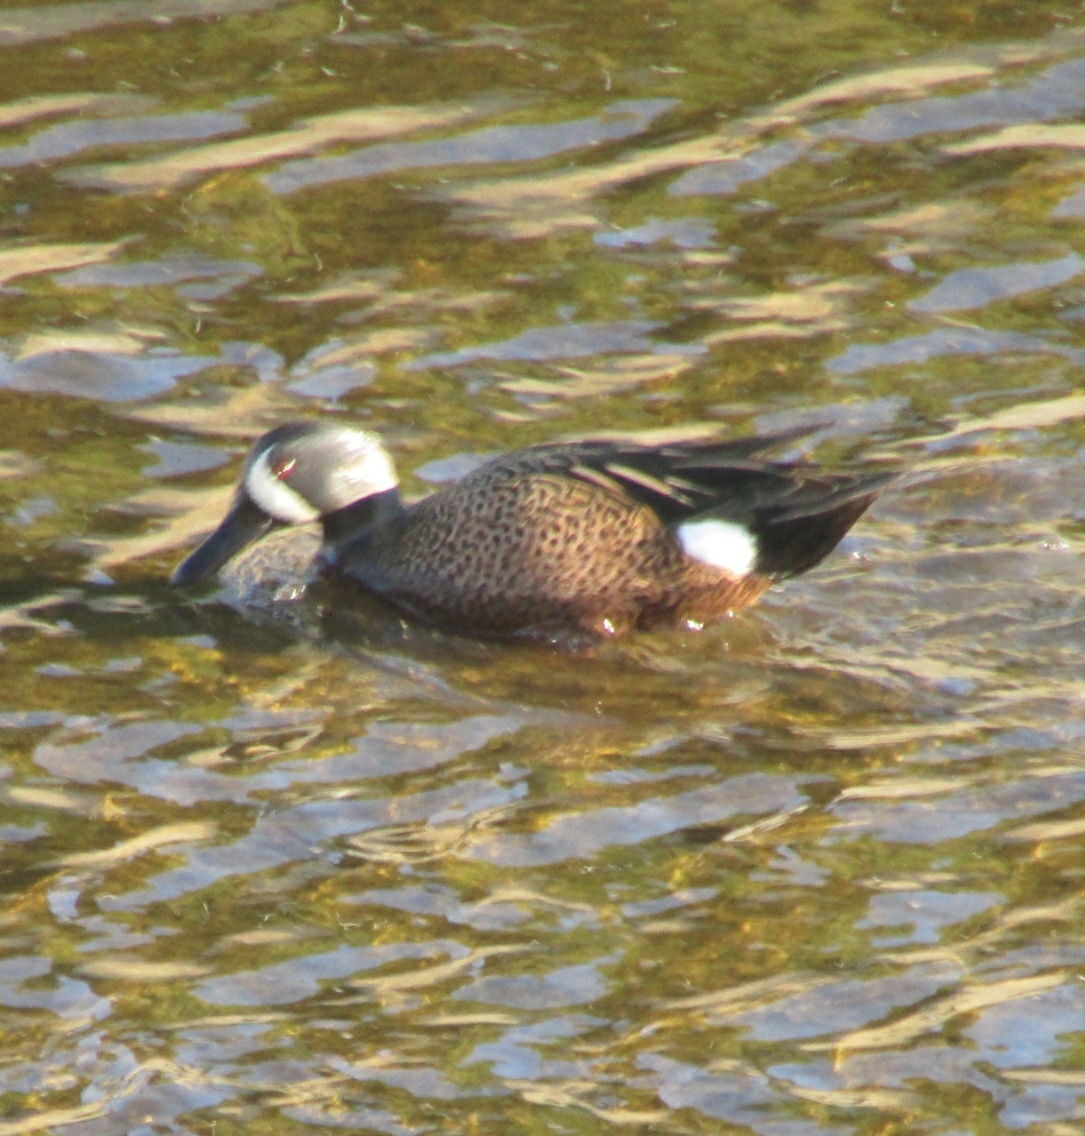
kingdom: Animalia
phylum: Chordata
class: Aves
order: Anseriformes
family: Anatidae
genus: Spatula
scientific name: Spatula discors
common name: Blue-winged teal
